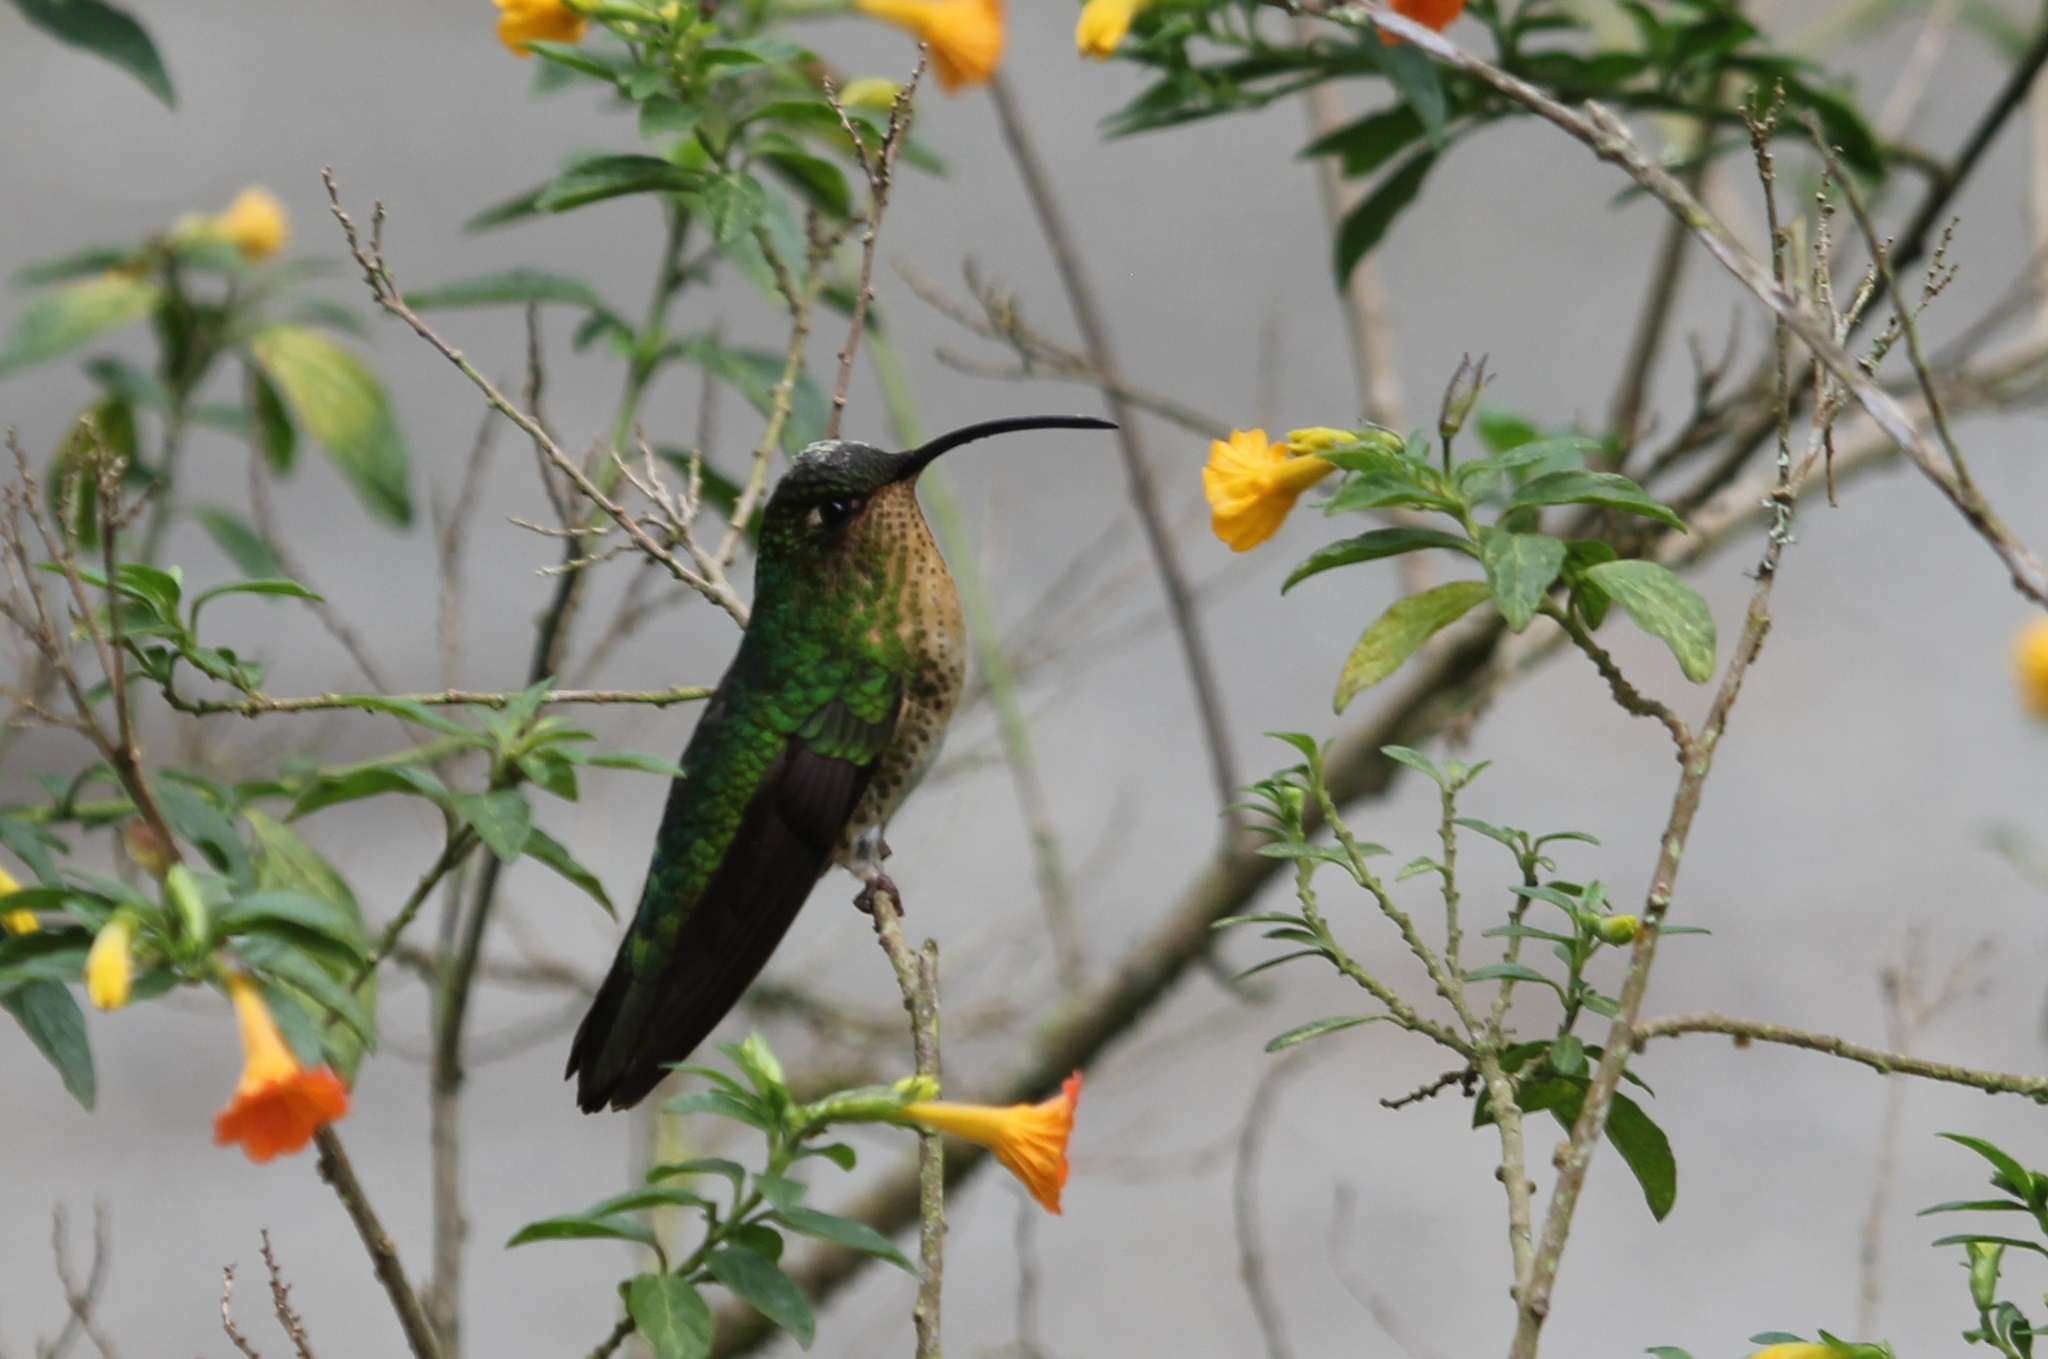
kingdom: Animalia
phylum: Chordata
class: Aves
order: Apodiformes
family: Trochilidae
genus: Lafresnaya
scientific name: Lafresnaya lafresnayi
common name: Mountain velvetbreast
